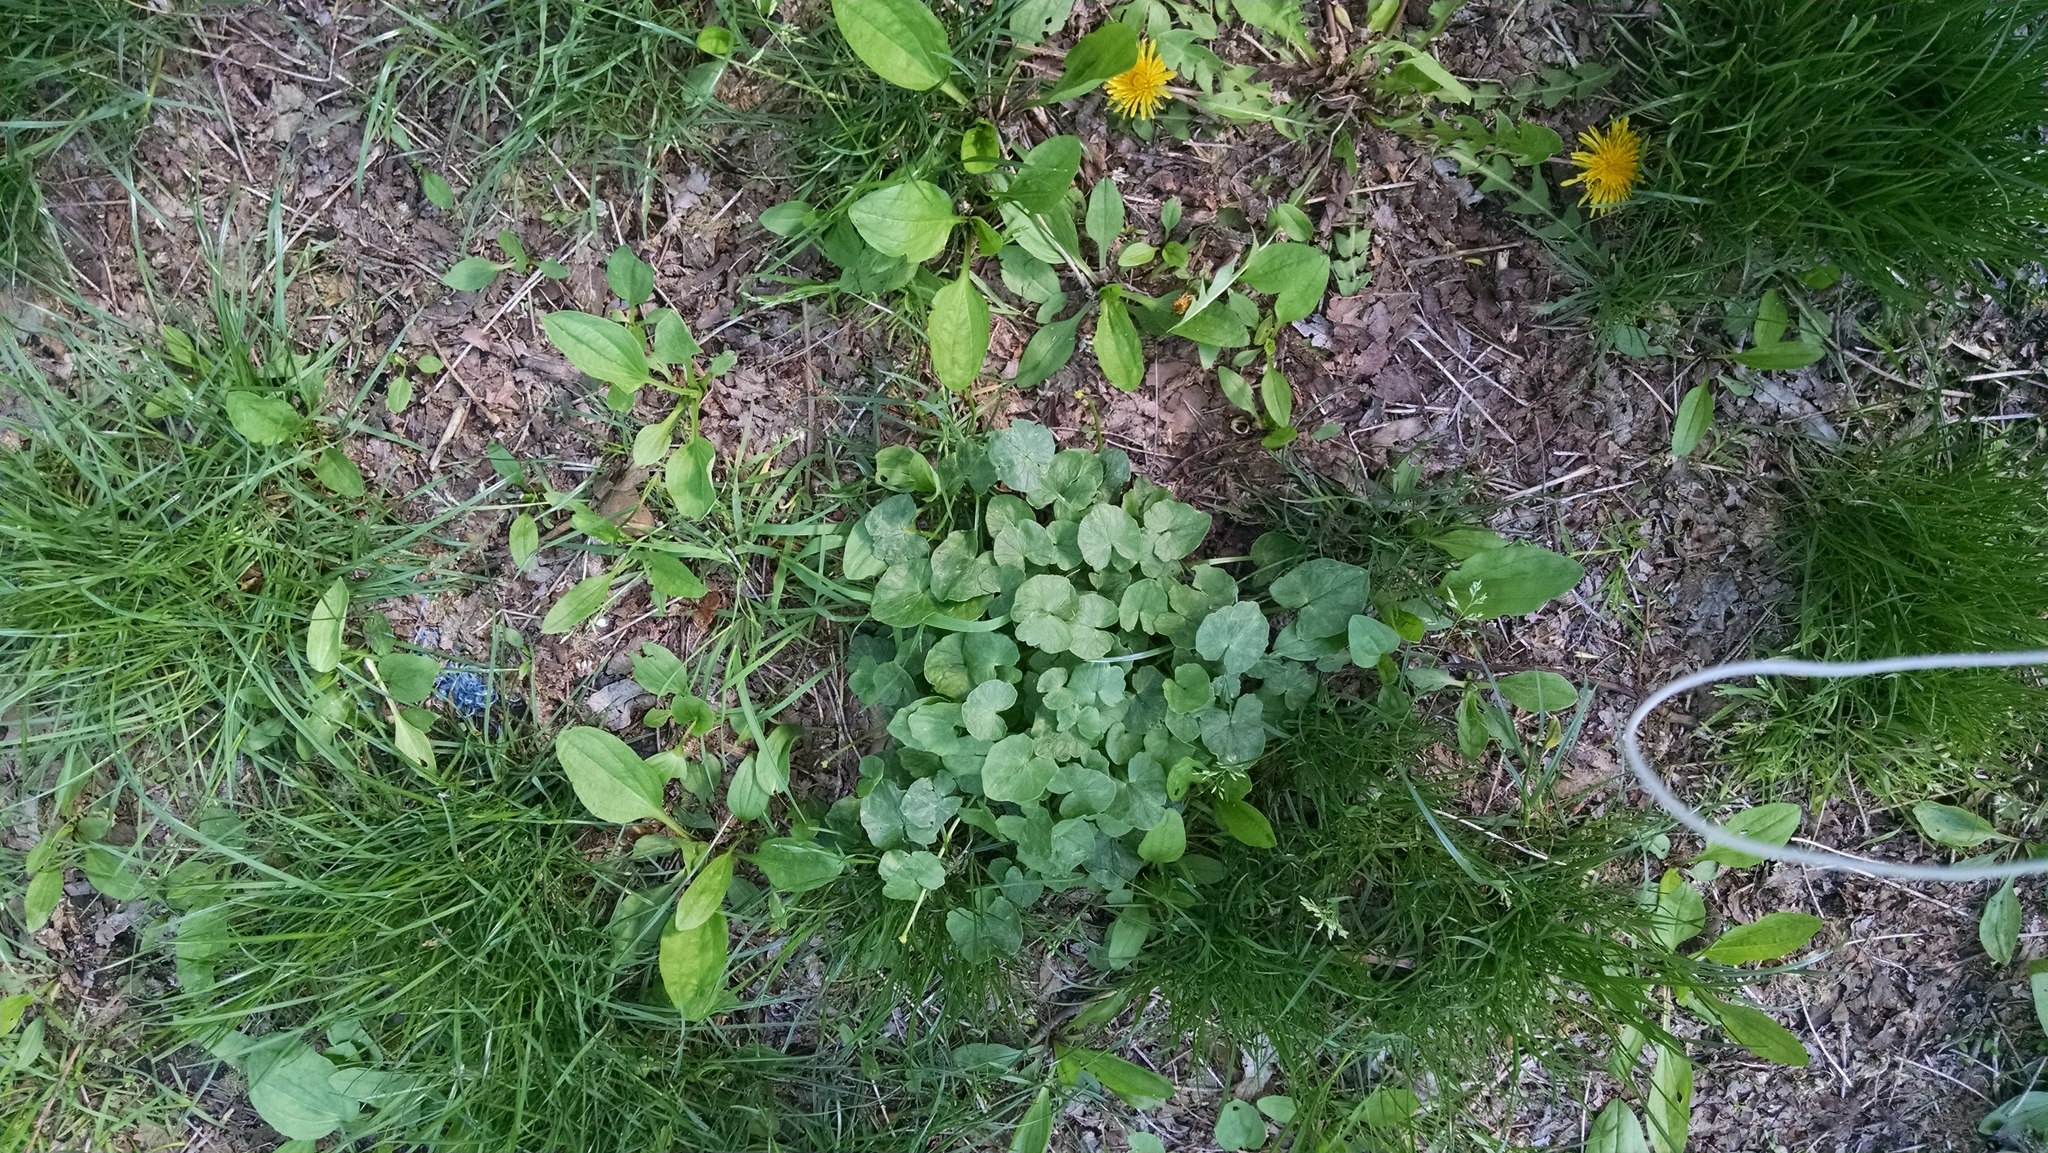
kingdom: Plantae
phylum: Tracheophyta
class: Magnoliopsida
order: Ranunculales
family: Ranunculaceae
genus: Ficaria
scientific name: Ficaria verna
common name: Lesser celandine
